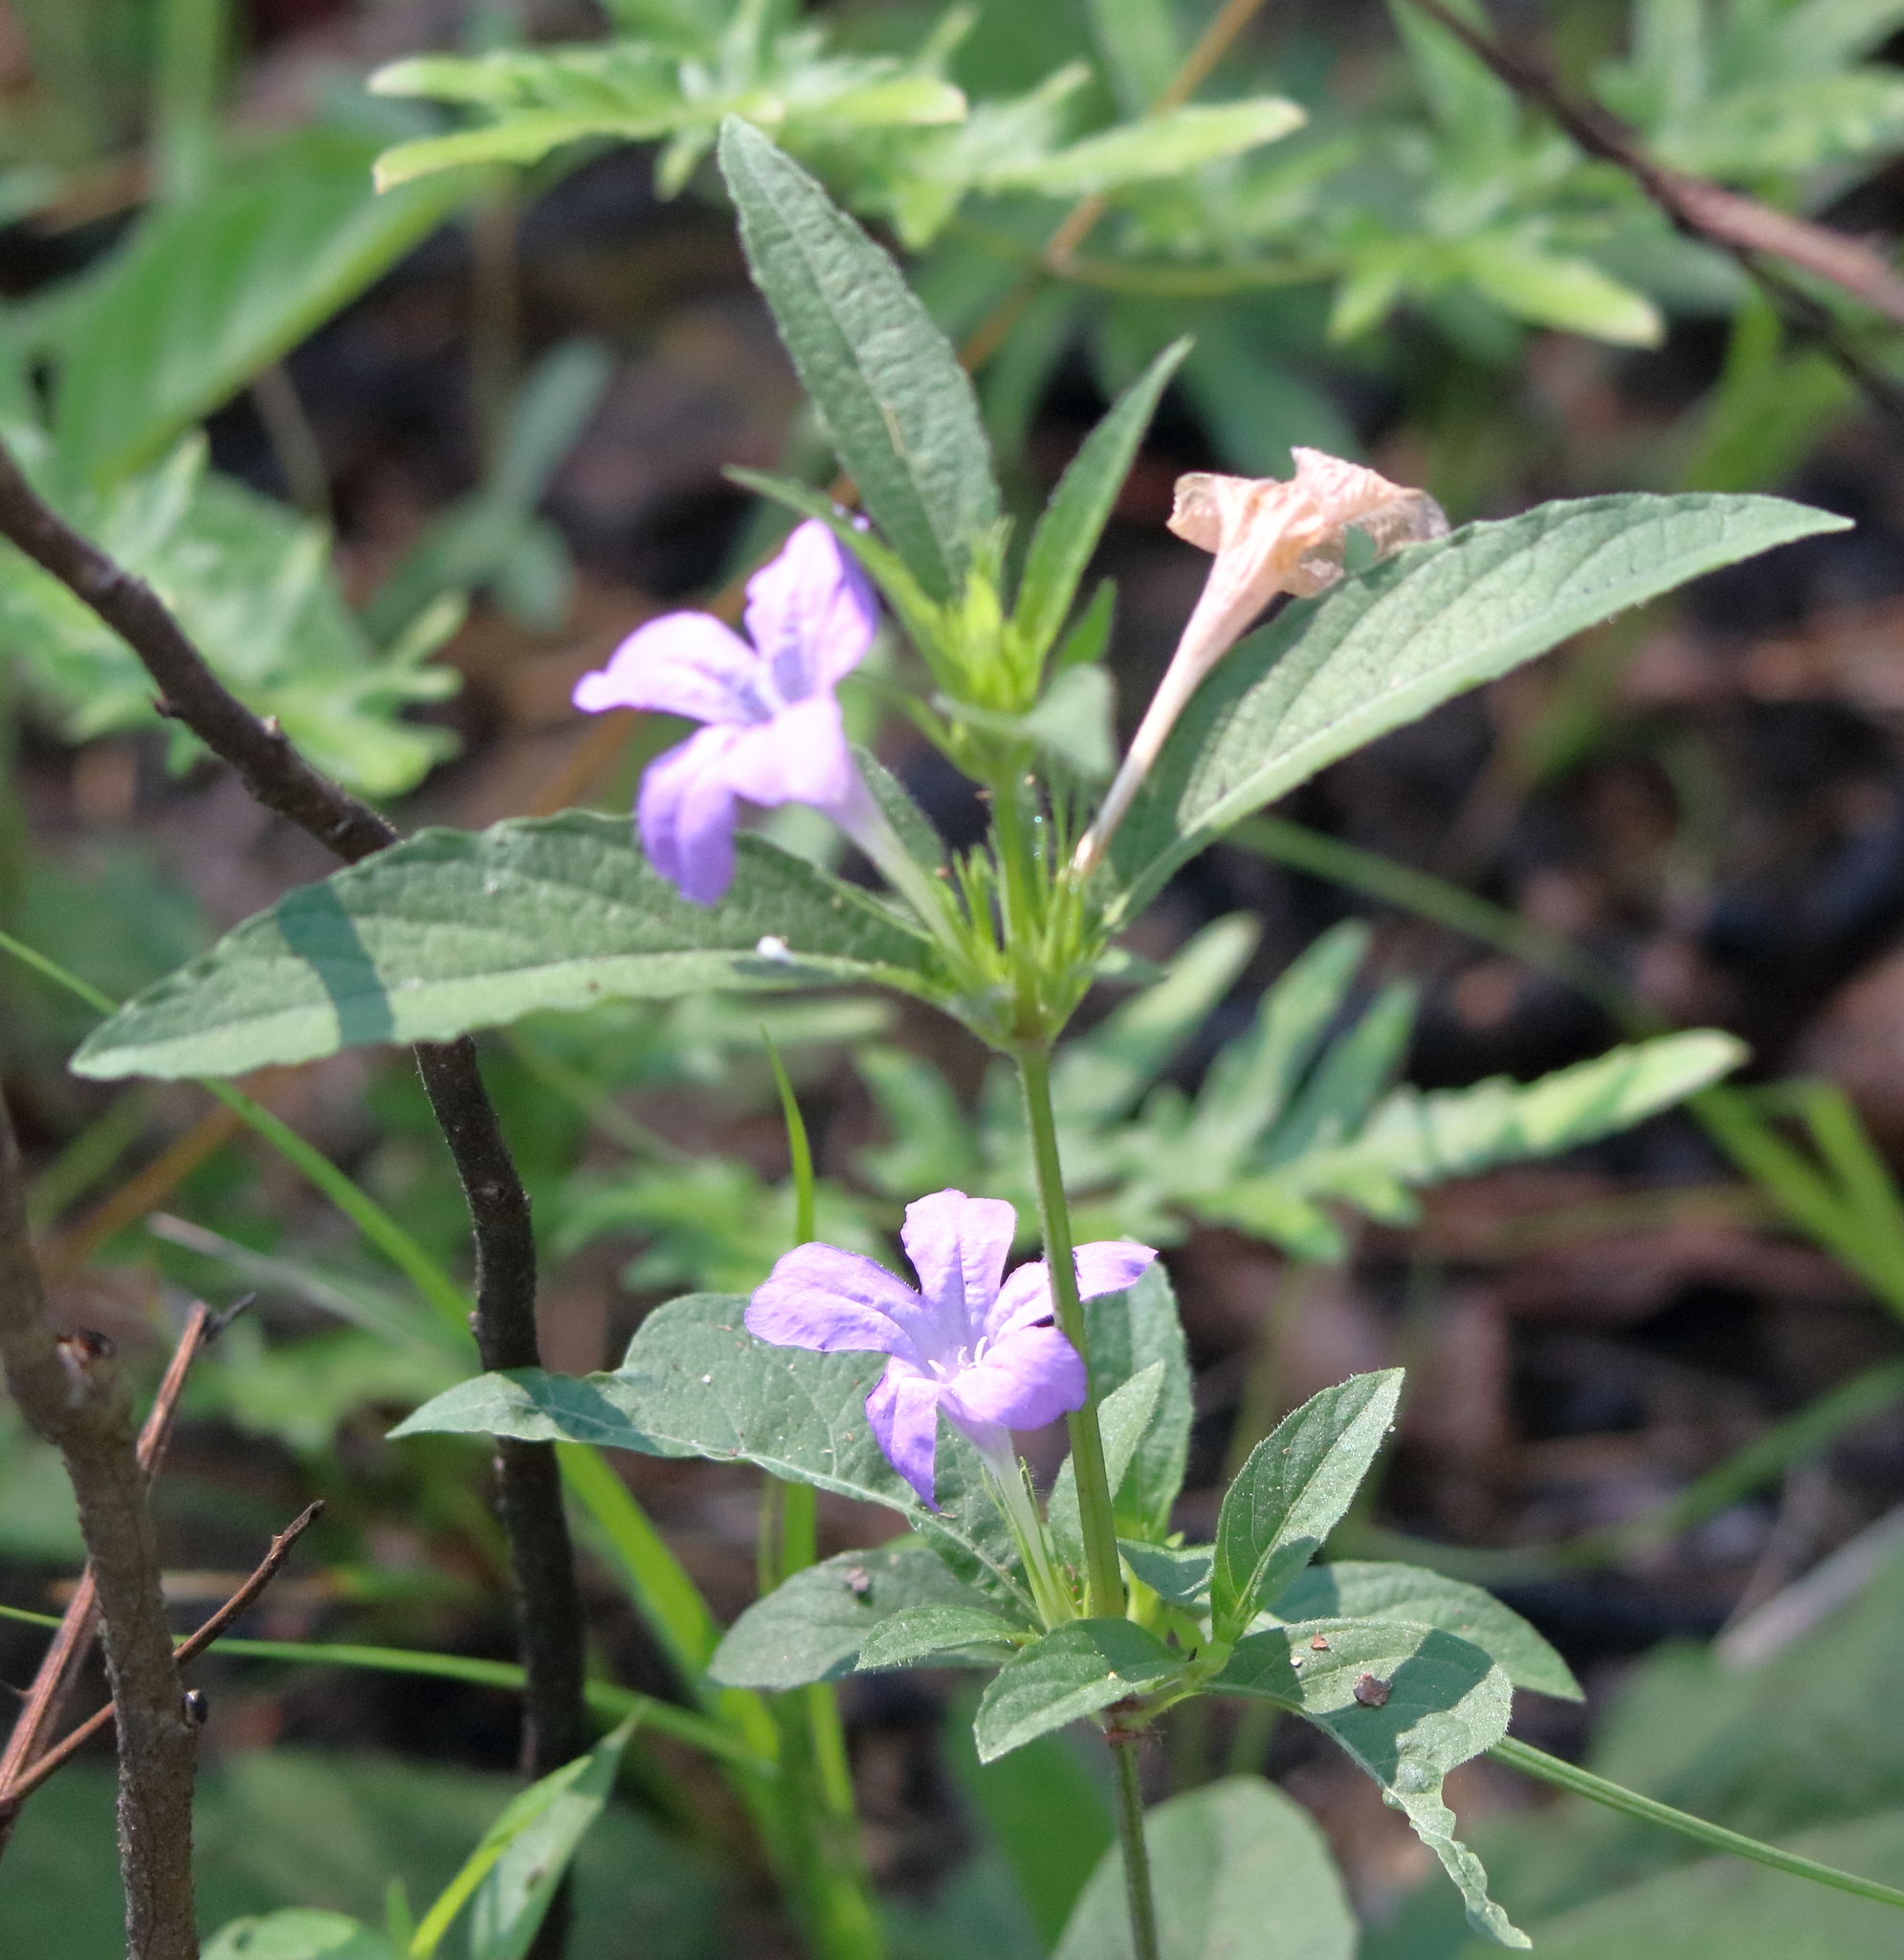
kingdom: Plantae
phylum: Tracheophyta
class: Magnoliopsida
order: Lamiales
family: Acanthaceae
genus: Ruellia
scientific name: Ruellia caroliniensis
